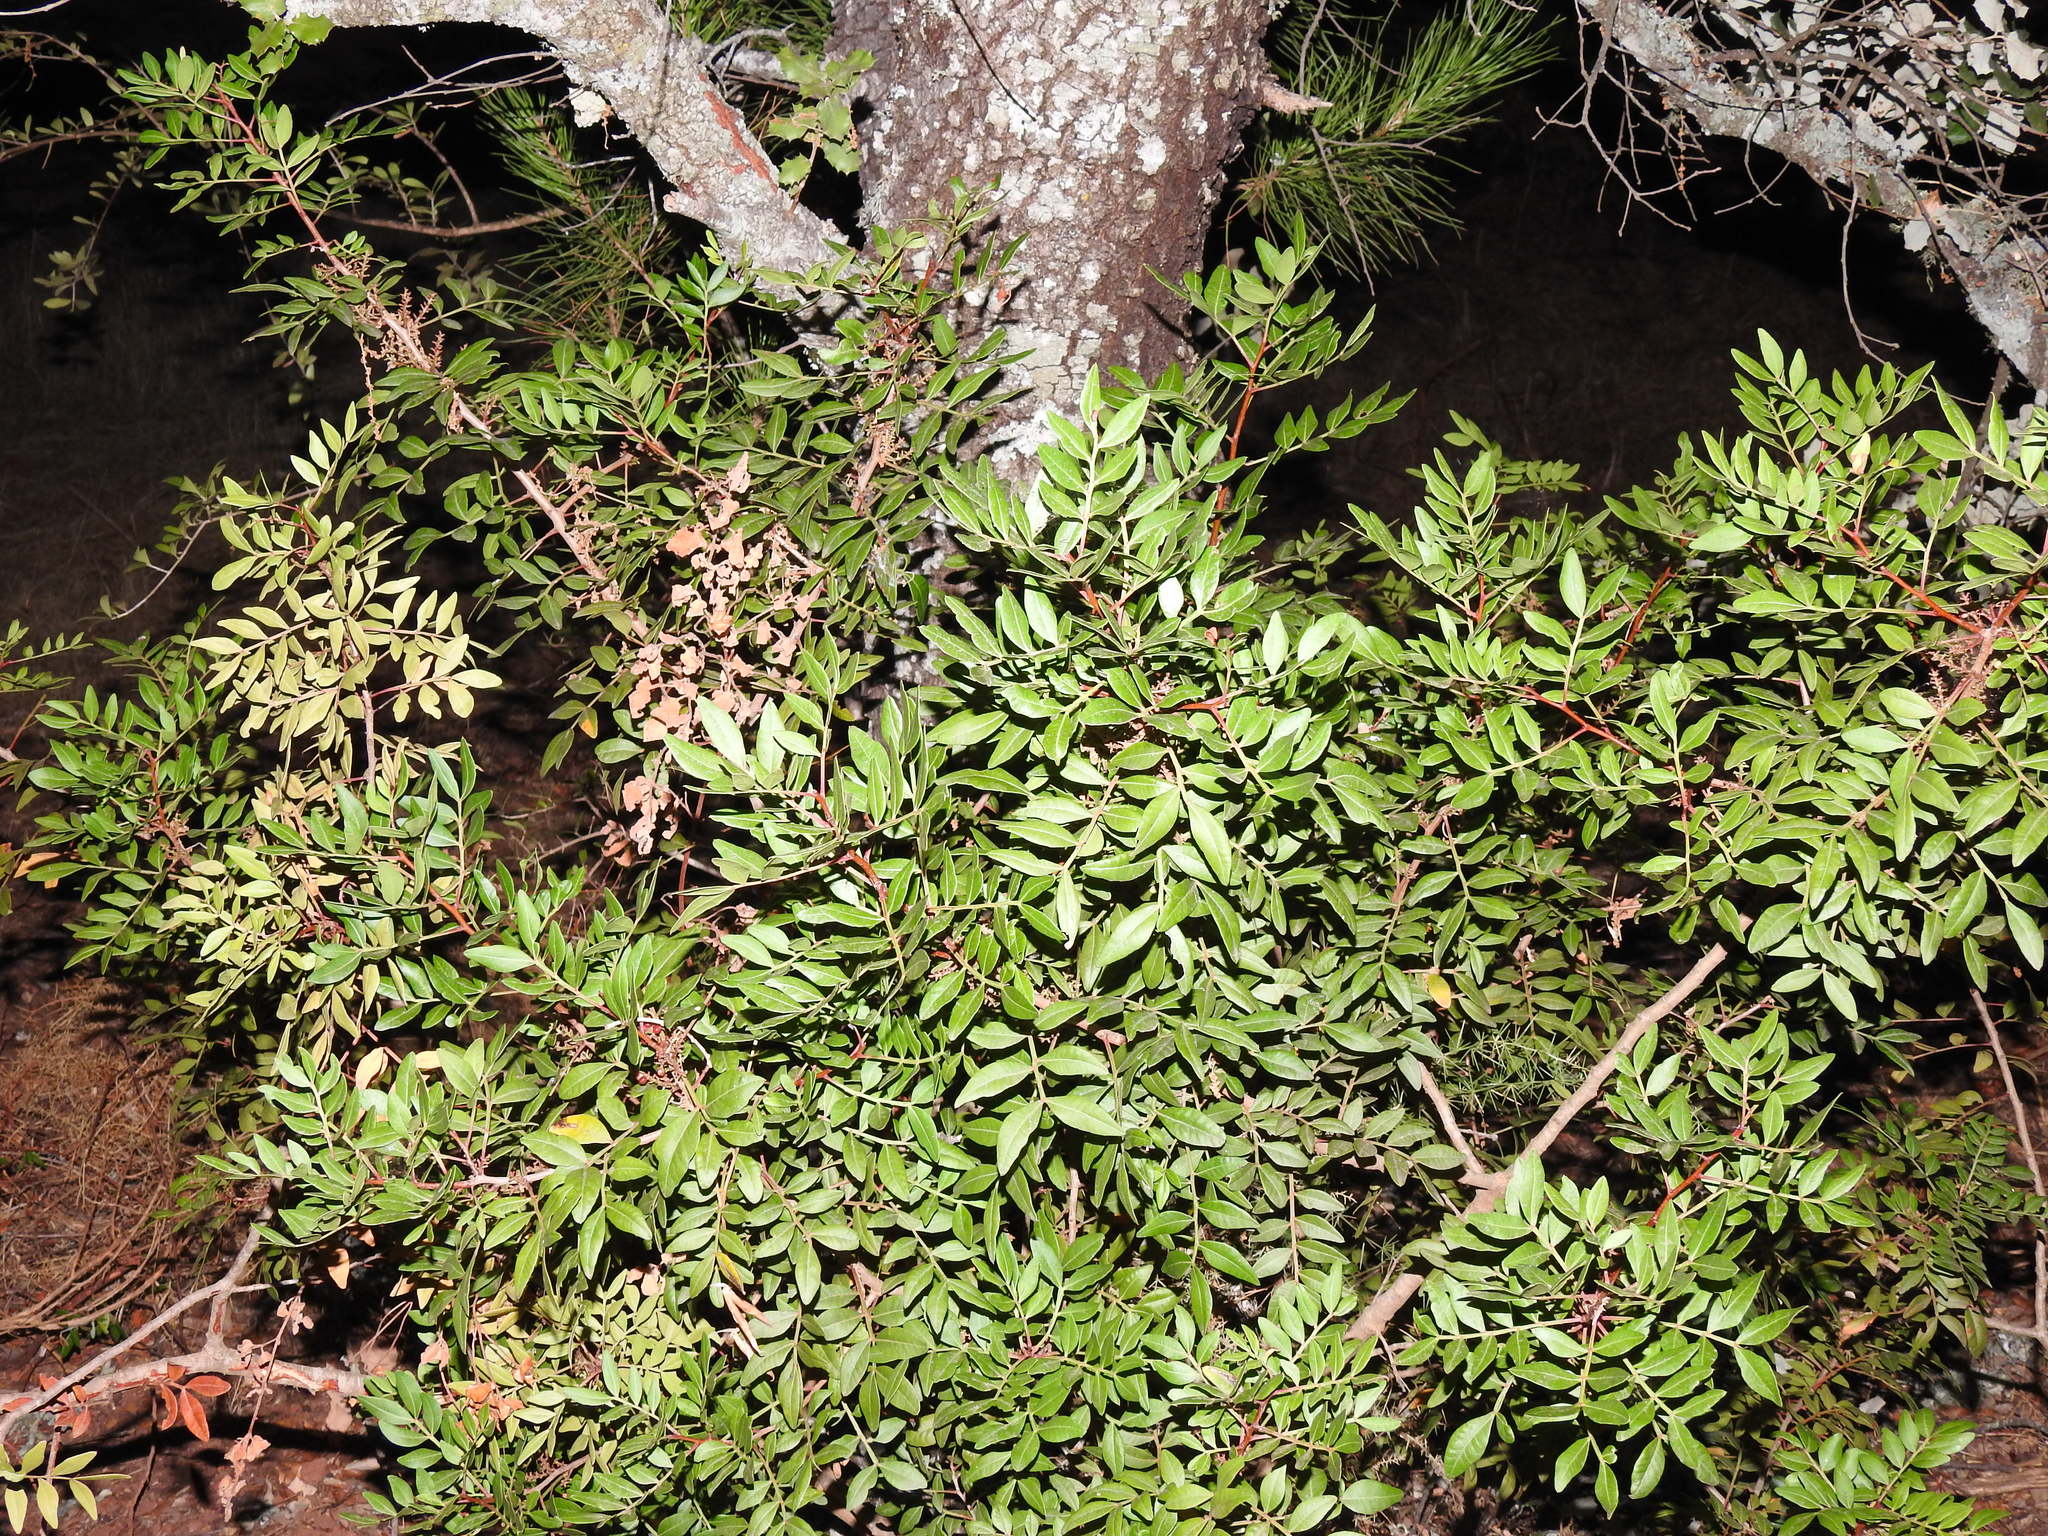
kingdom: Plantae
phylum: Tracheophyta
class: Magnoliopsida
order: Sapindales
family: Anacardiaceae
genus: Pistacia
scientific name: Pistacia lentiscus
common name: Lentisk
